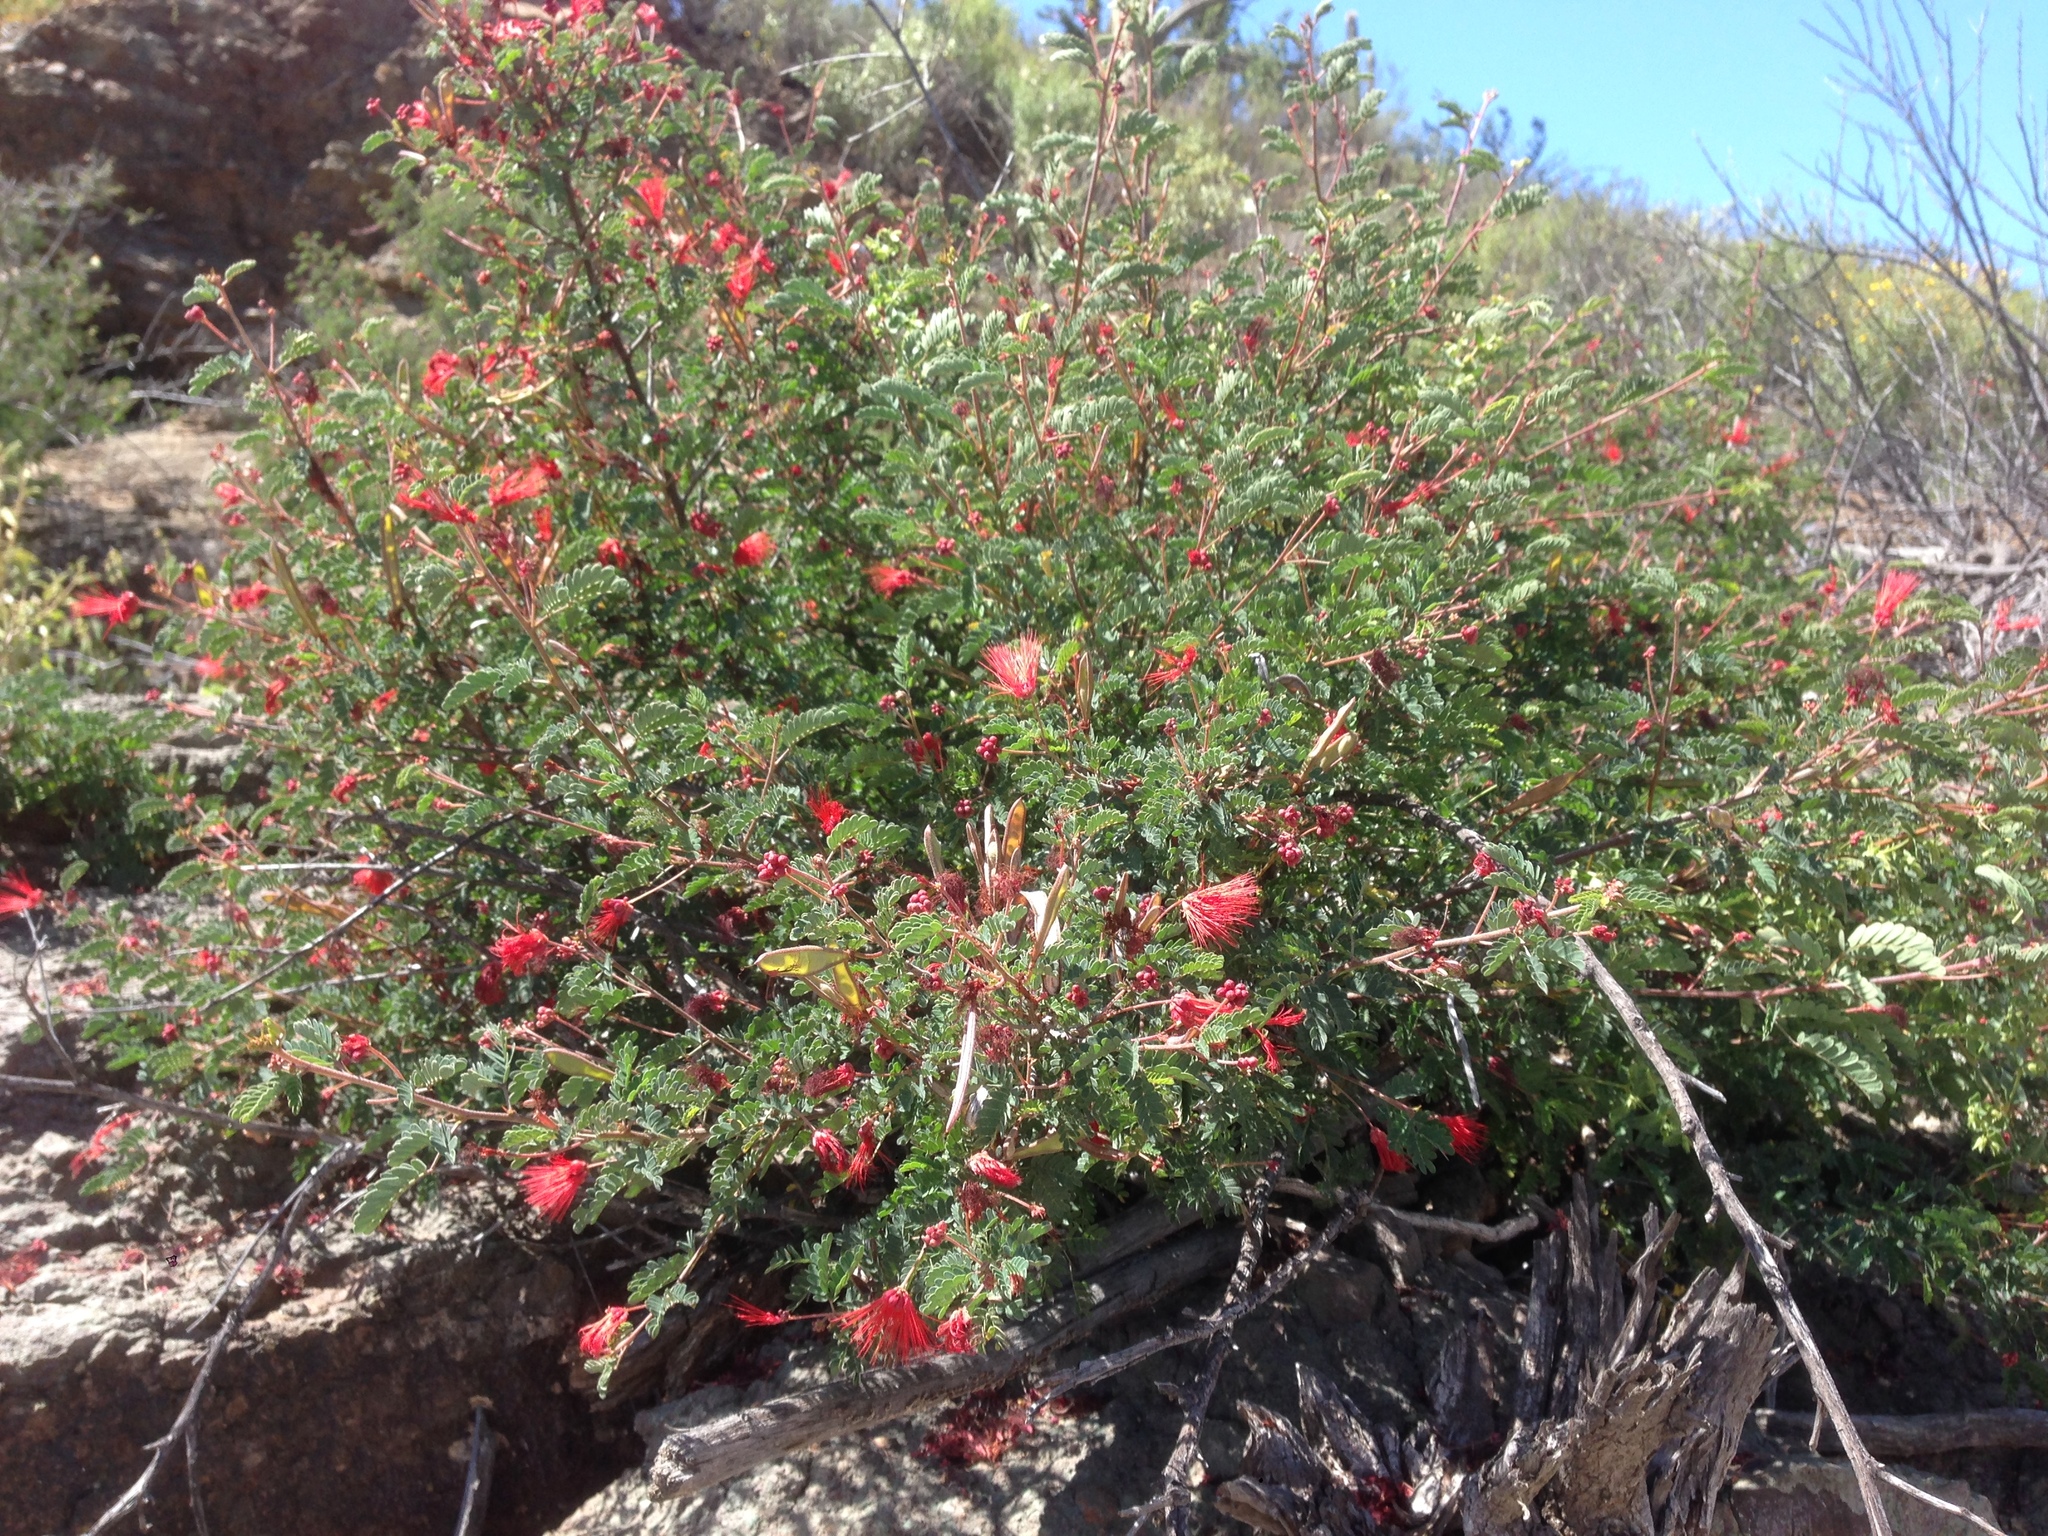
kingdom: Plantae
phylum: Tracheophyta
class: Magnoliopsida
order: Fabales
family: Fabaceae
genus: Calliandra
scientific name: Calliandra californica
